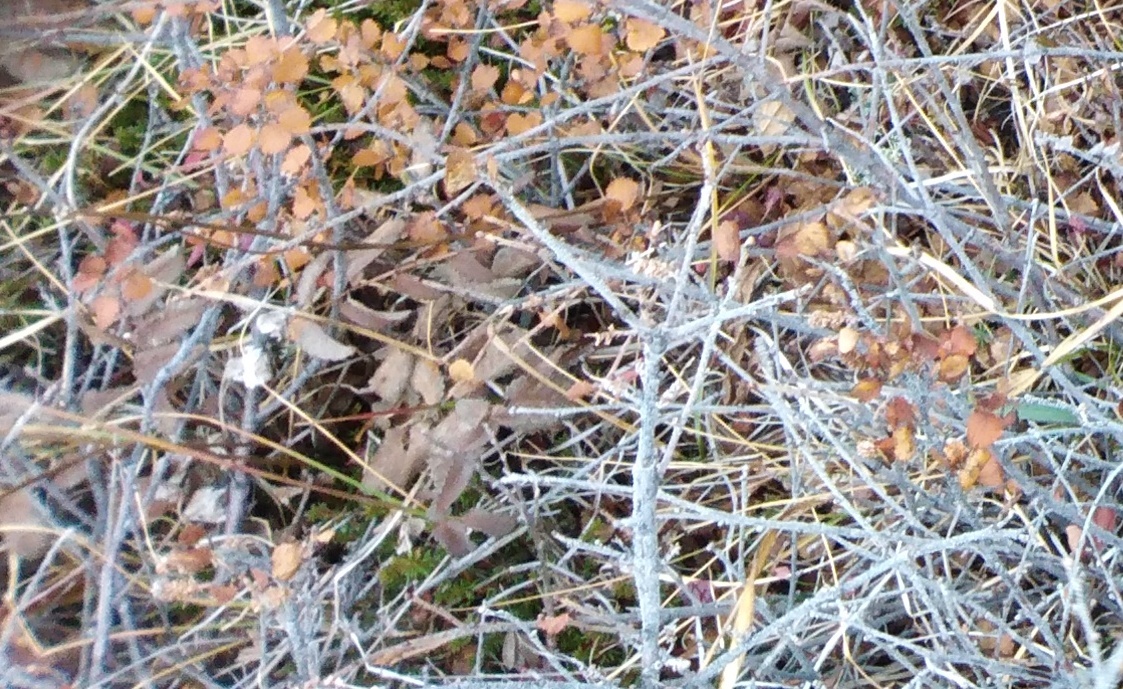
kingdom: Plantae
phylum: Tracheophyta
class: Magnoliopsida
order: Fagales
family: Betulaceae
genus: Betula
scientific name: Betula glandulosa
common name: Dwarf birch
